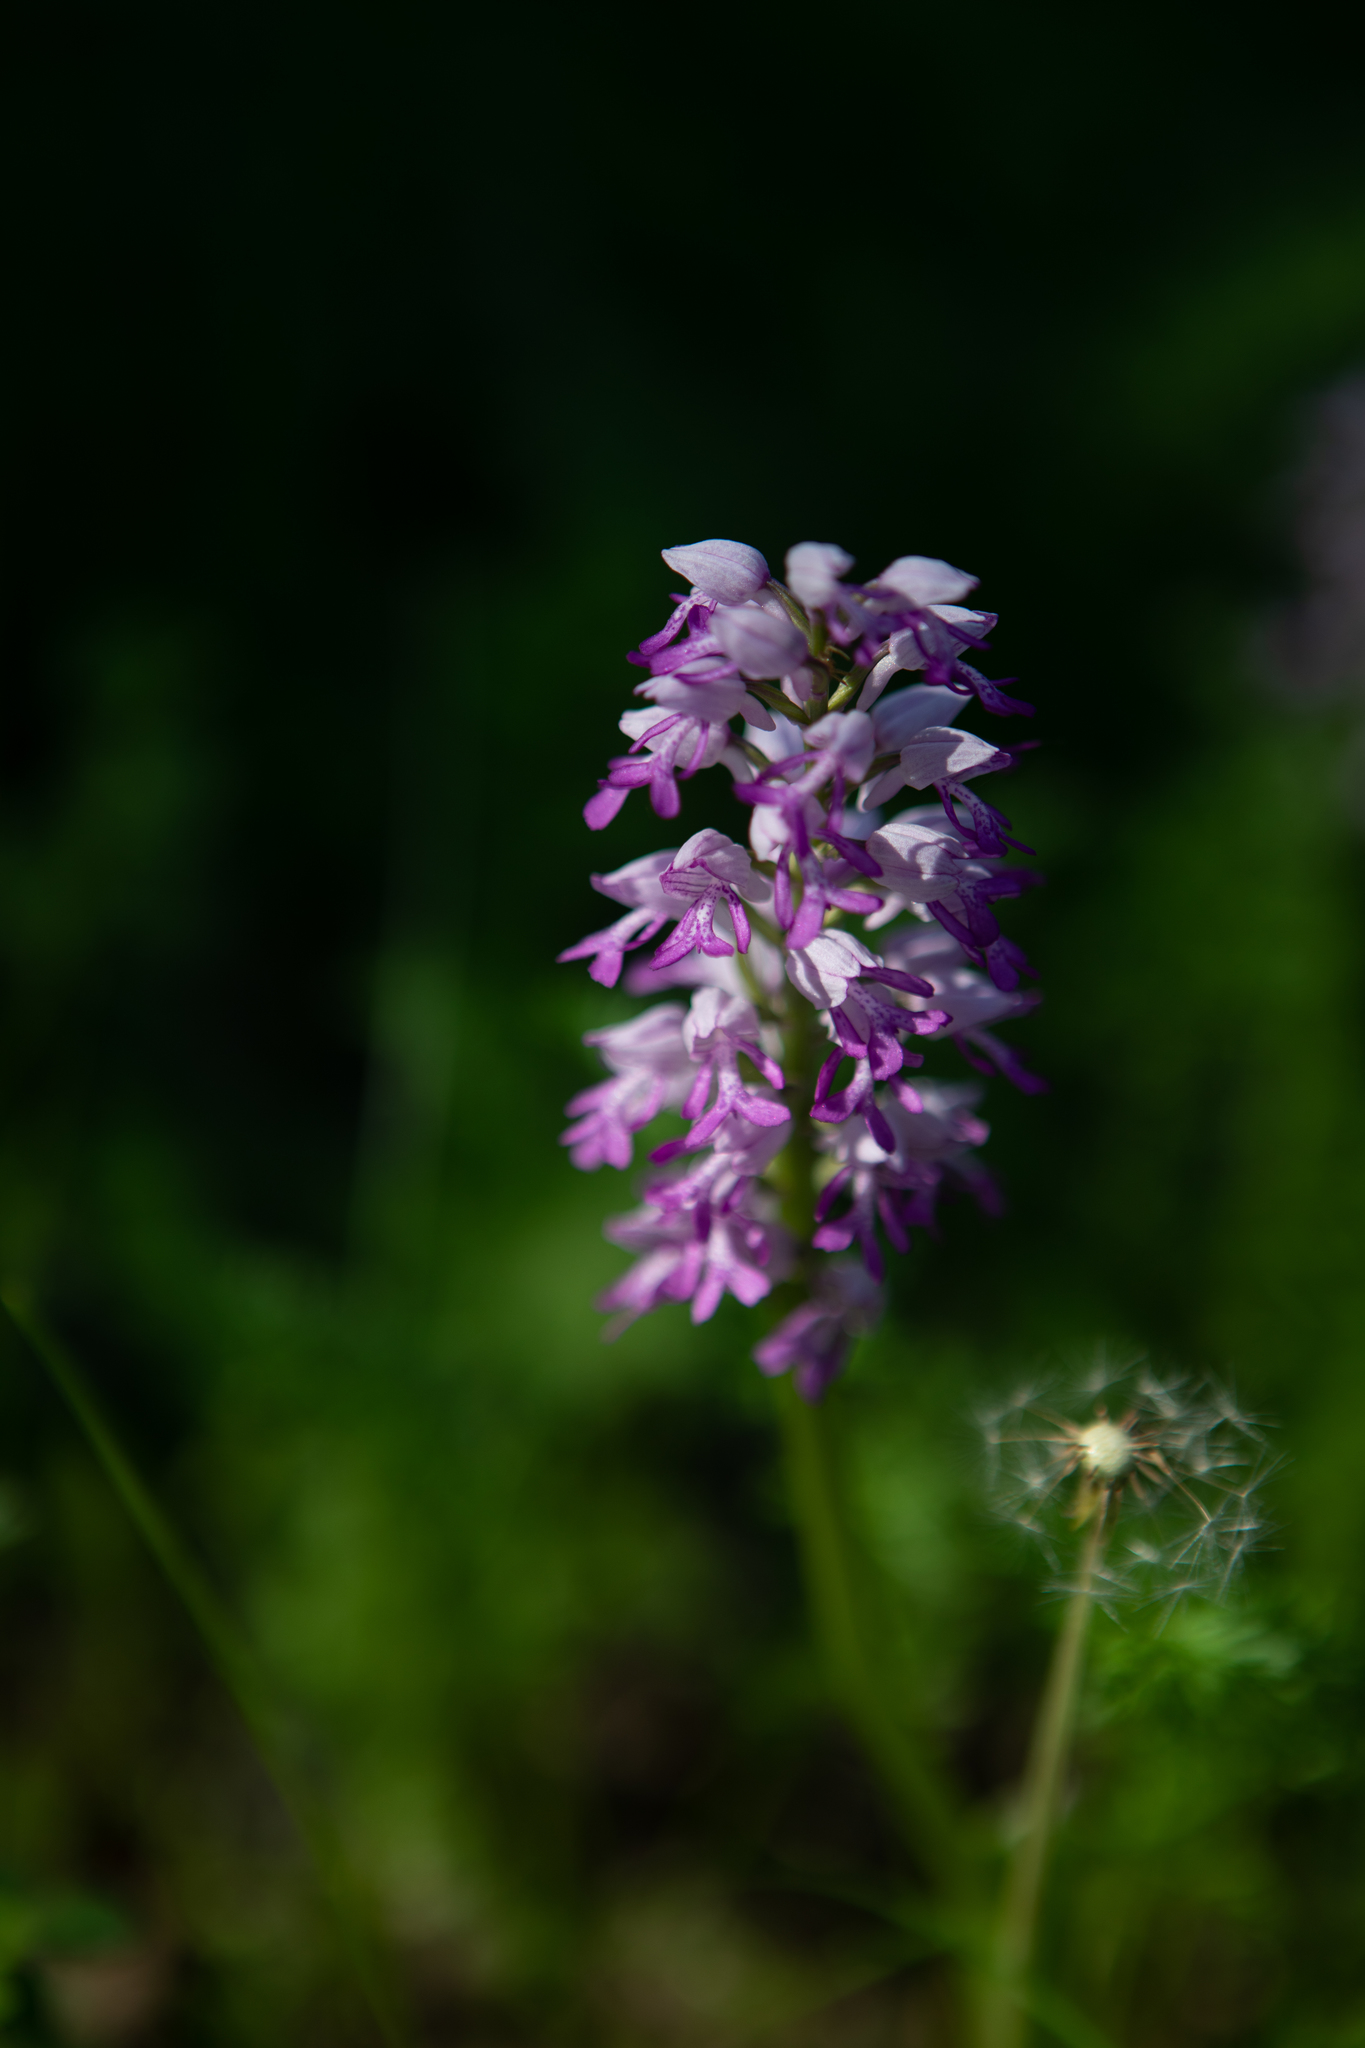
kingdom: Plantae
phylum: Tracheophyta
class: Liliopsida
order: Asparagales
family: Orchidaceae
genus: Orchis
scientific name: Orchis militaris
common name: Military orchid
